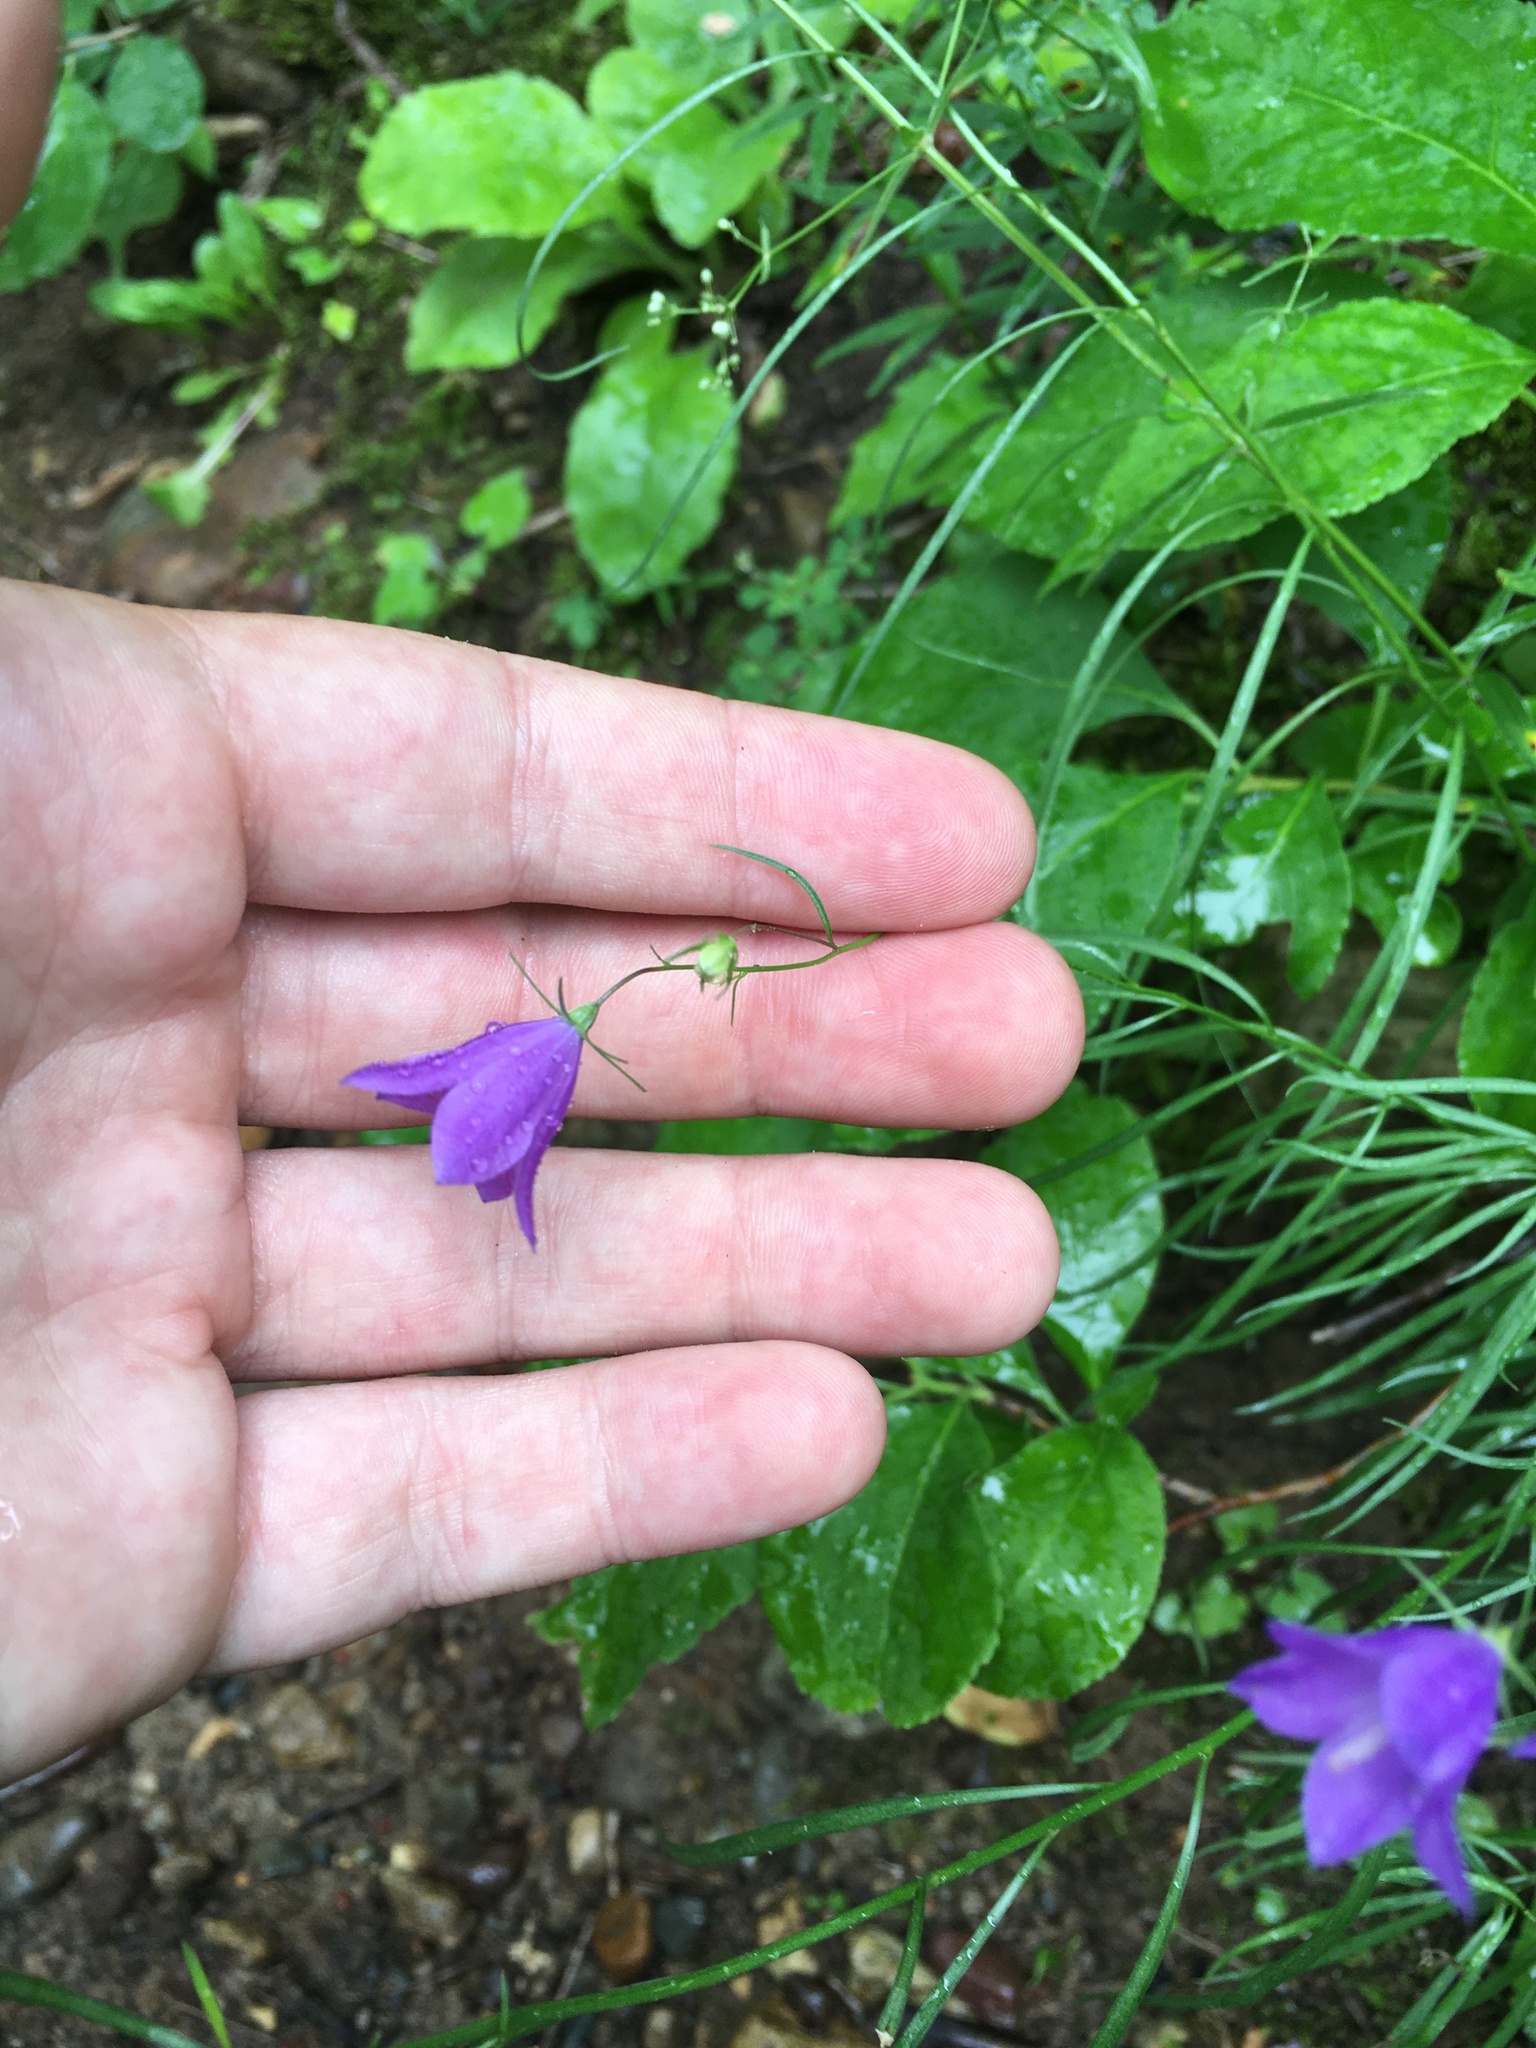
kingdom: Plantae
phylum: Tracheophyta
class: Magnoliopsida
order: Asterales
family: Campanulaceae
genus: Campanula
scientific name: Campanula intercedens
